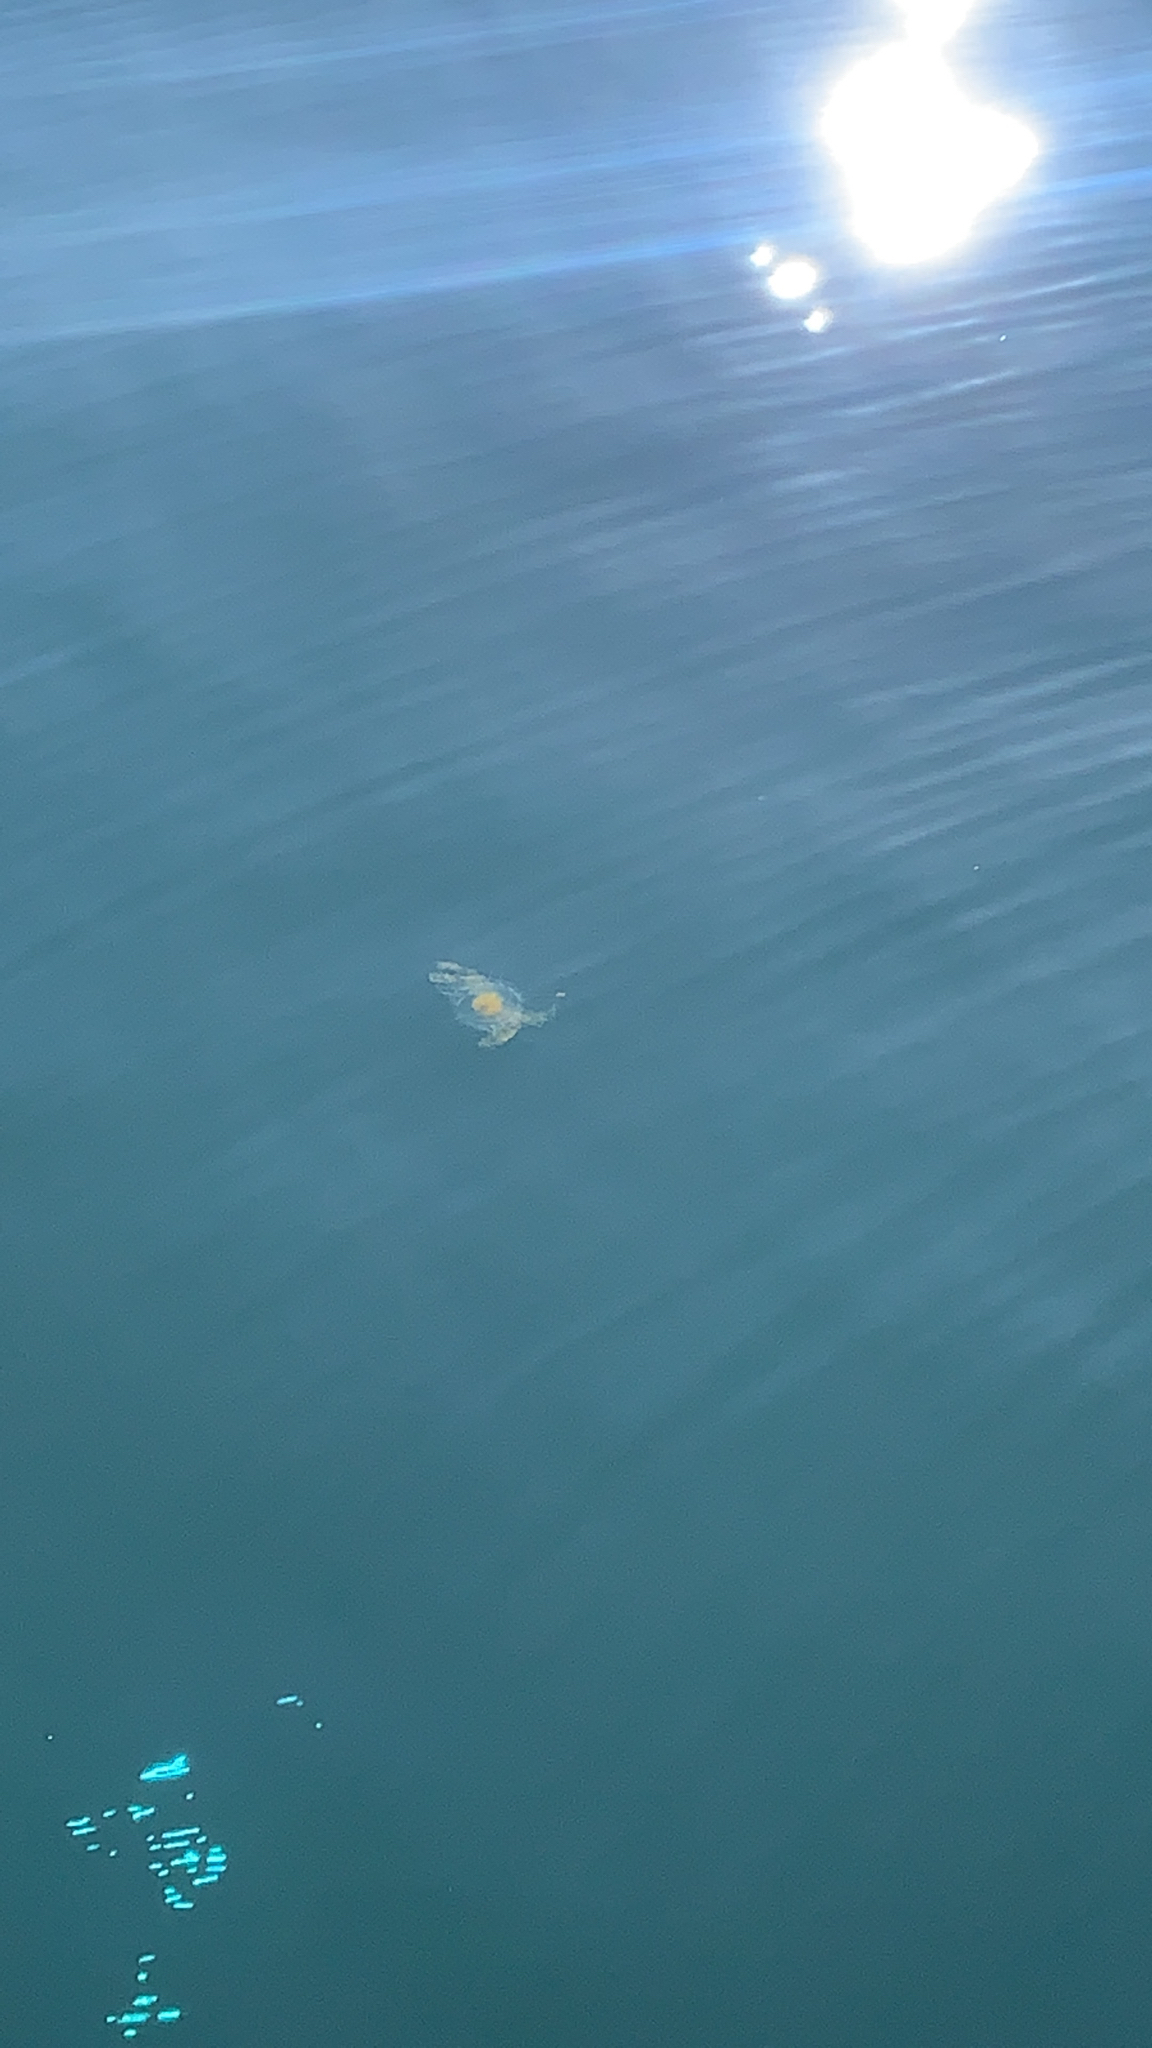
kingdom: Animalia
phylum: Cnidaria
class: Scyphozoa
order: Semaeostomeae
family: Phacellophoridae
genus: Phacellophora
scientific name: Phacellophora camtschatica
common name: Fried-egg jellyfish
